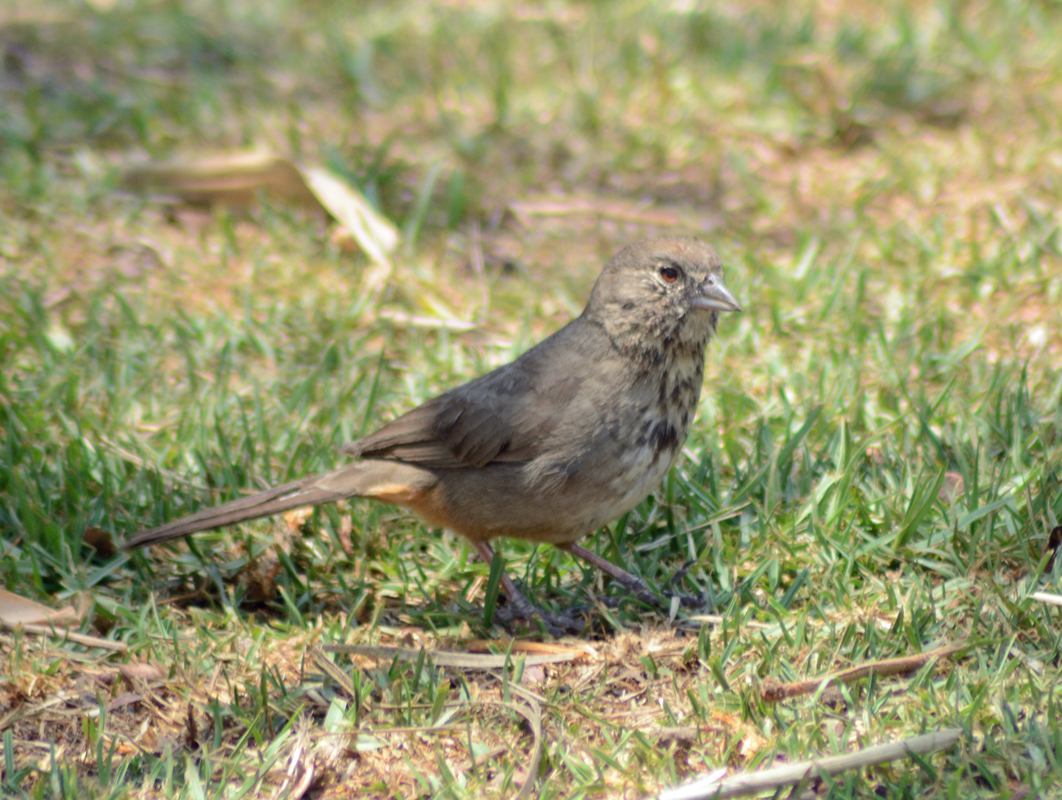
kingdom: Animalia
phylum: Chordata
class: Aves
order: Passeriformes
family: Passerellidae
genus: Melozone
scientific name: Melozone fusca
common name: Canyon towhee
